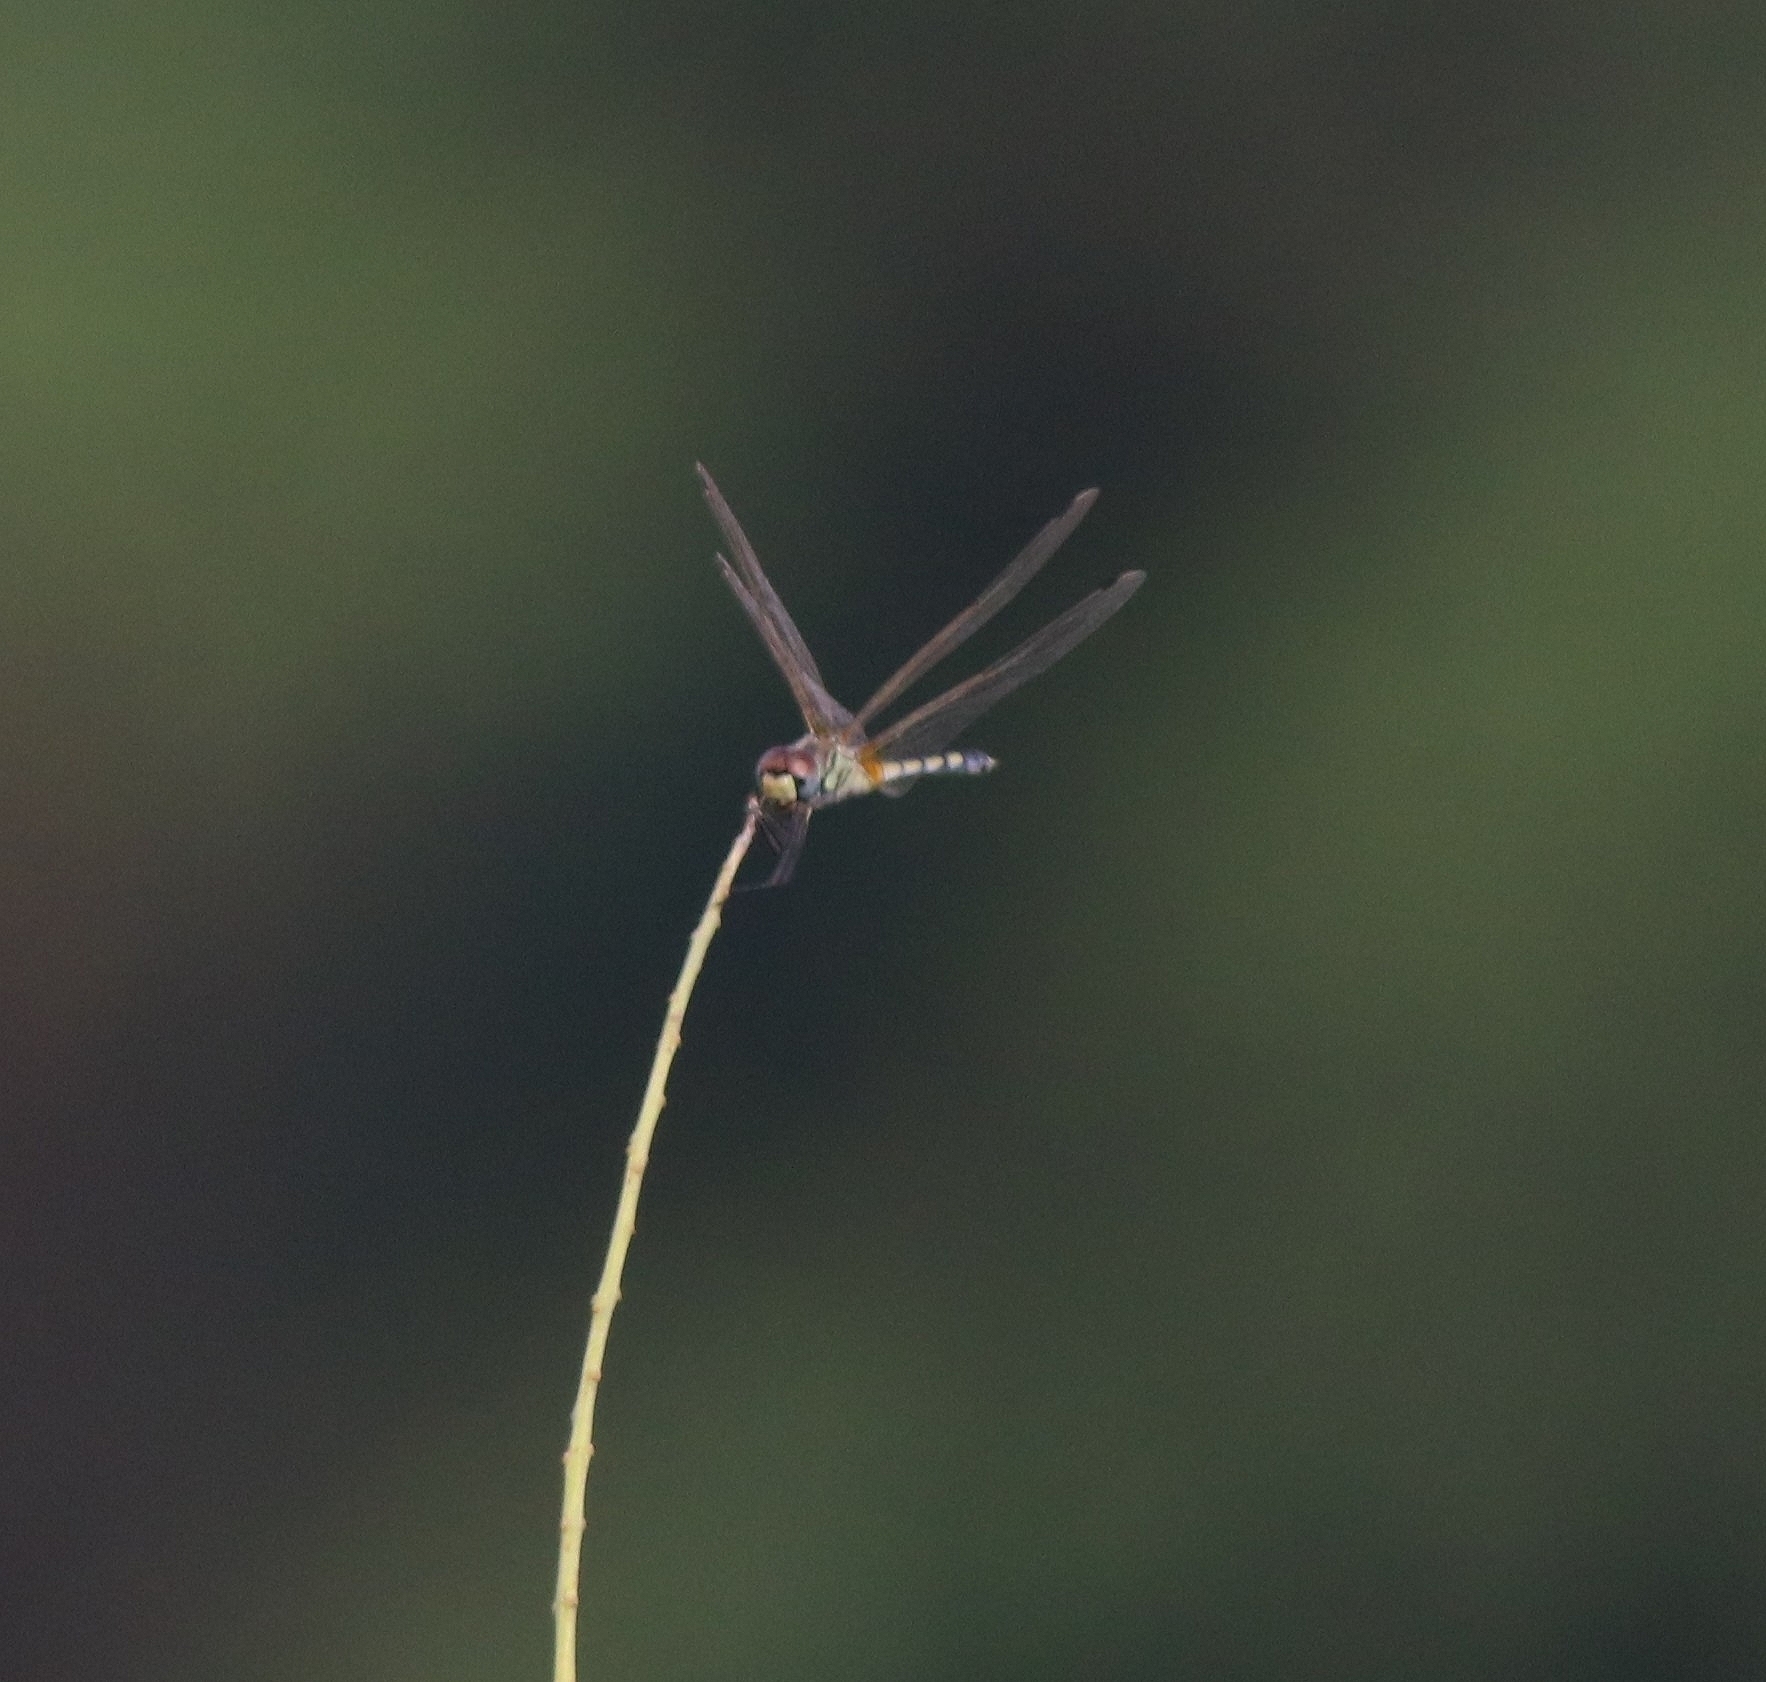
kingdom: Animalia
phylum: Arthropoda
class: Insecta
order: Odonata
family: Libellulidae
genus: Trithemis
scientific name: Trithemis pallidinervis
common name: Dancing dropwing
